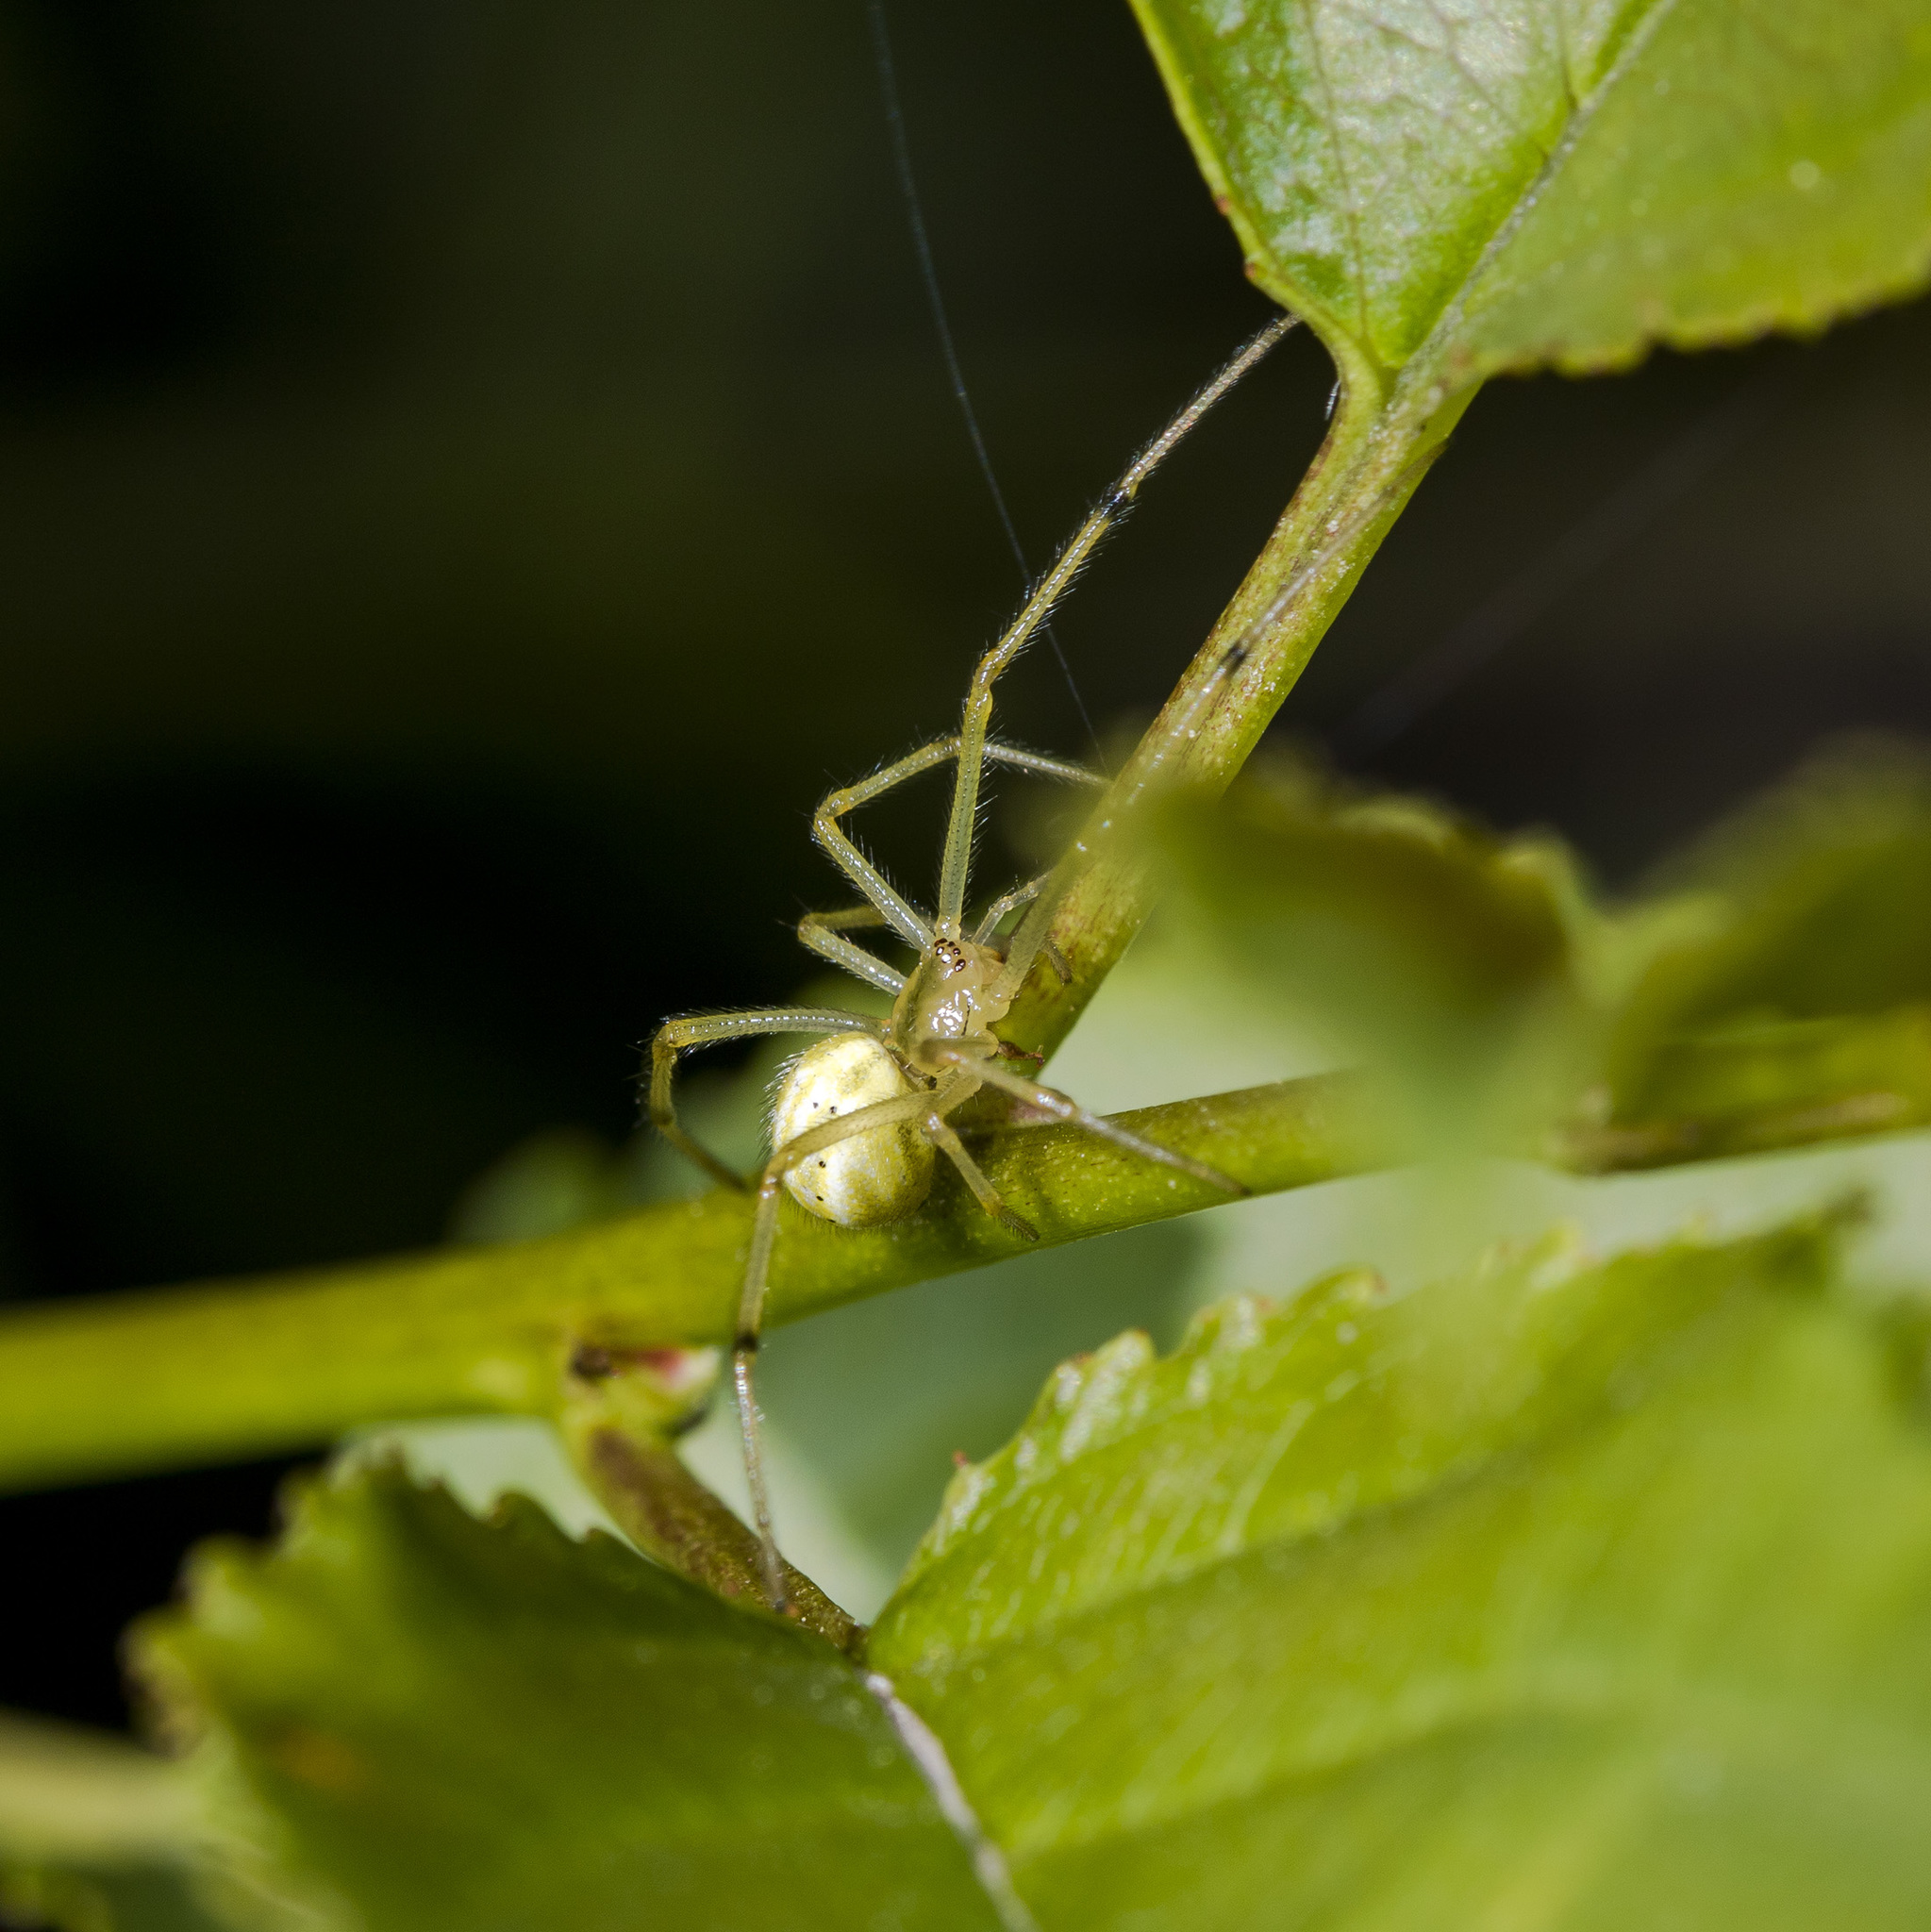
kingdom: Animalia
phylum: Arthropoda
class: Arachnida
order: Araneae
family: Theridiidae
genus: Enoplognatha
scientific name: Enoplognatha latimana
